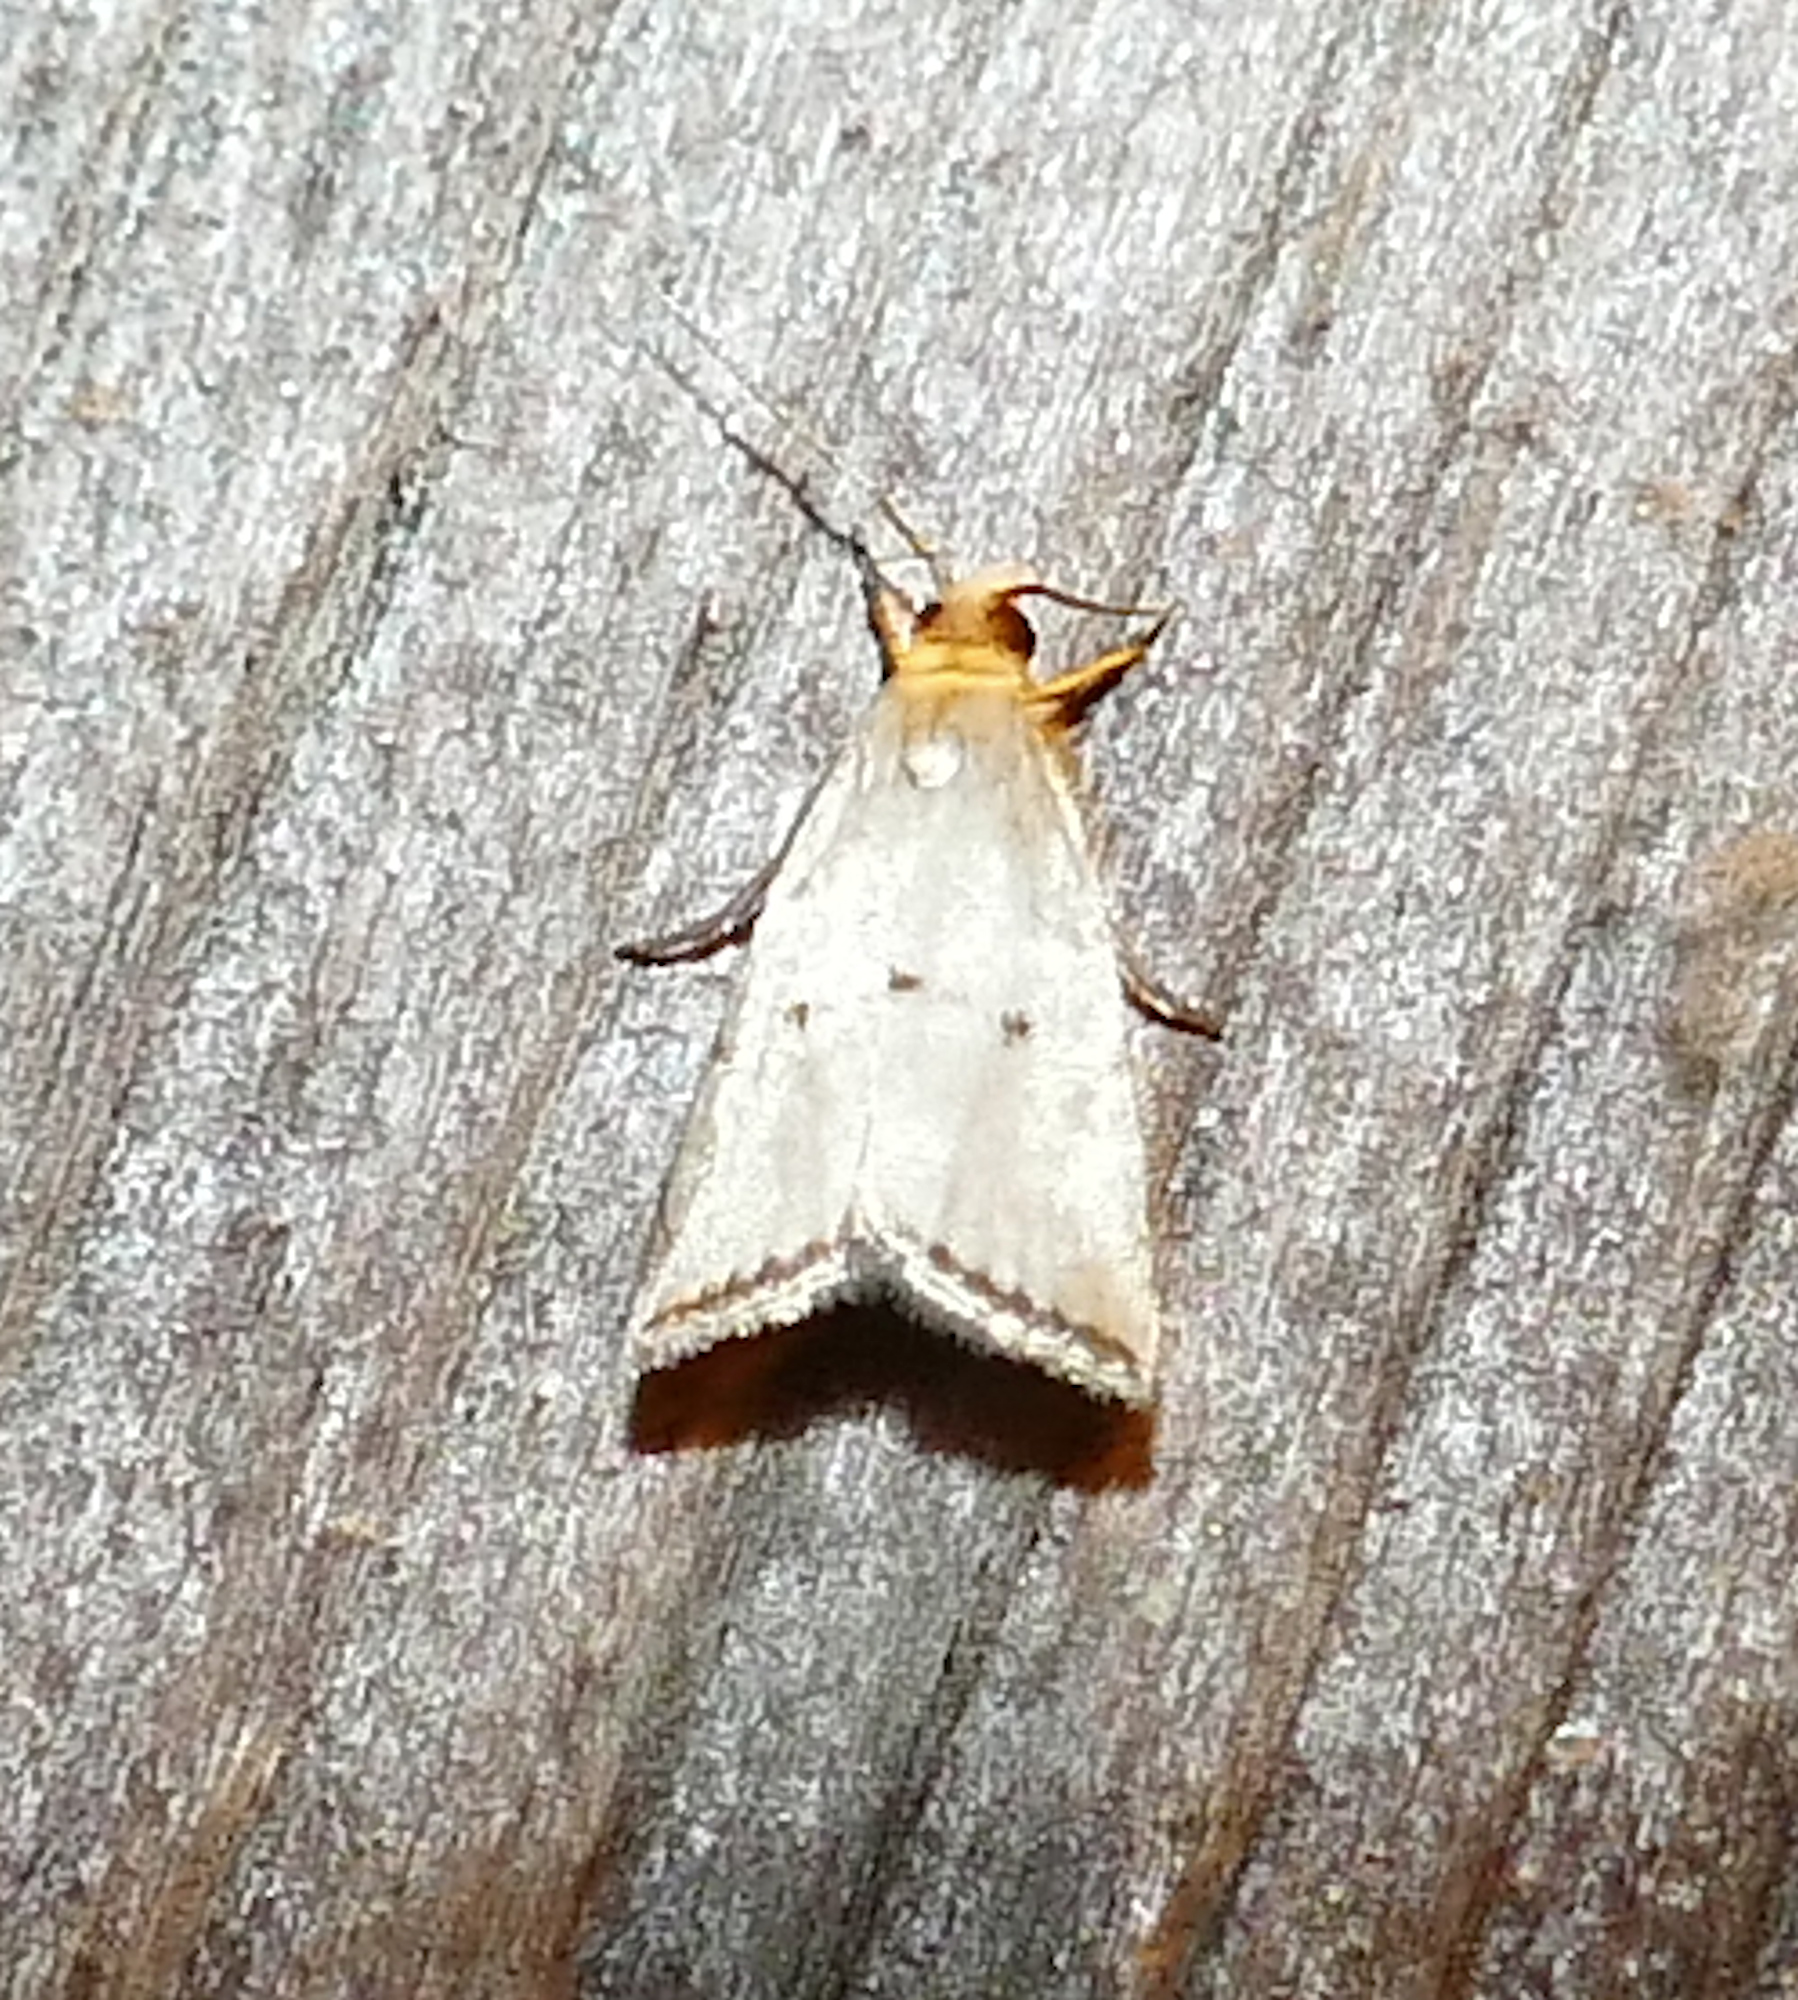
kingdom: Animalia
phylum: Arthropoda
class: Insecta
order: Lepidoptera
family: Crambidae
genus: Argyria
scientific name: Argyria pusillalis
